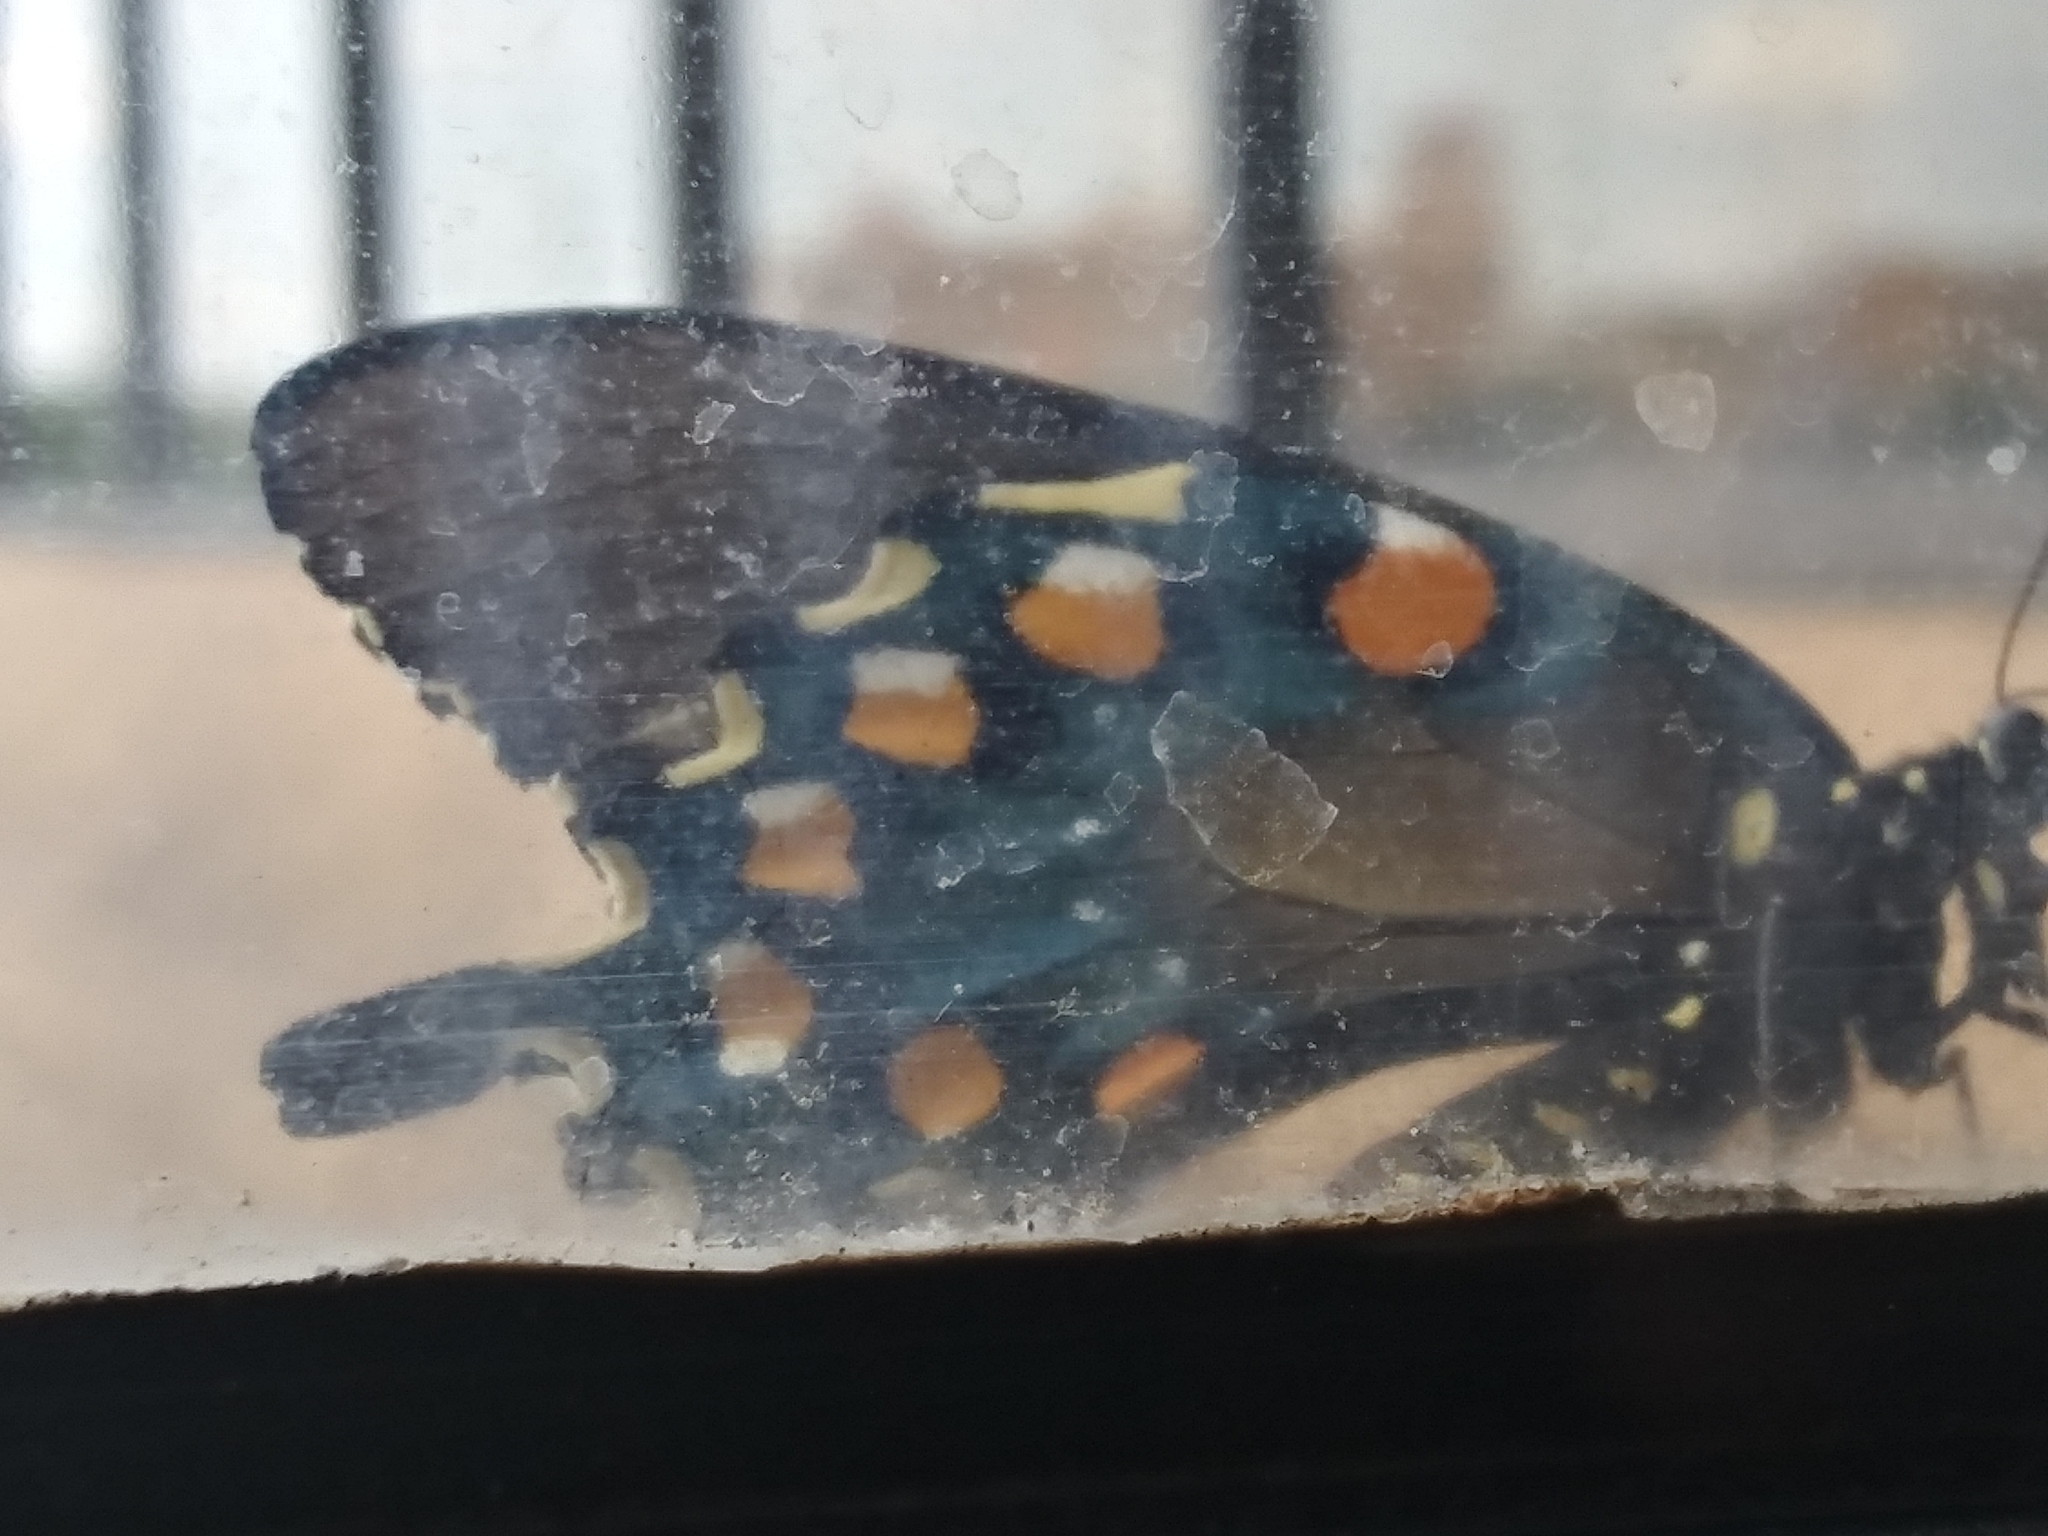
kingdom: Animalia
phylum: Arthropoda
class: Insecta
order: Lepidoptera
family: Papilionidae
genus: Battus
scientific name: Battus philenor
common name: Pipevine swallowtail
